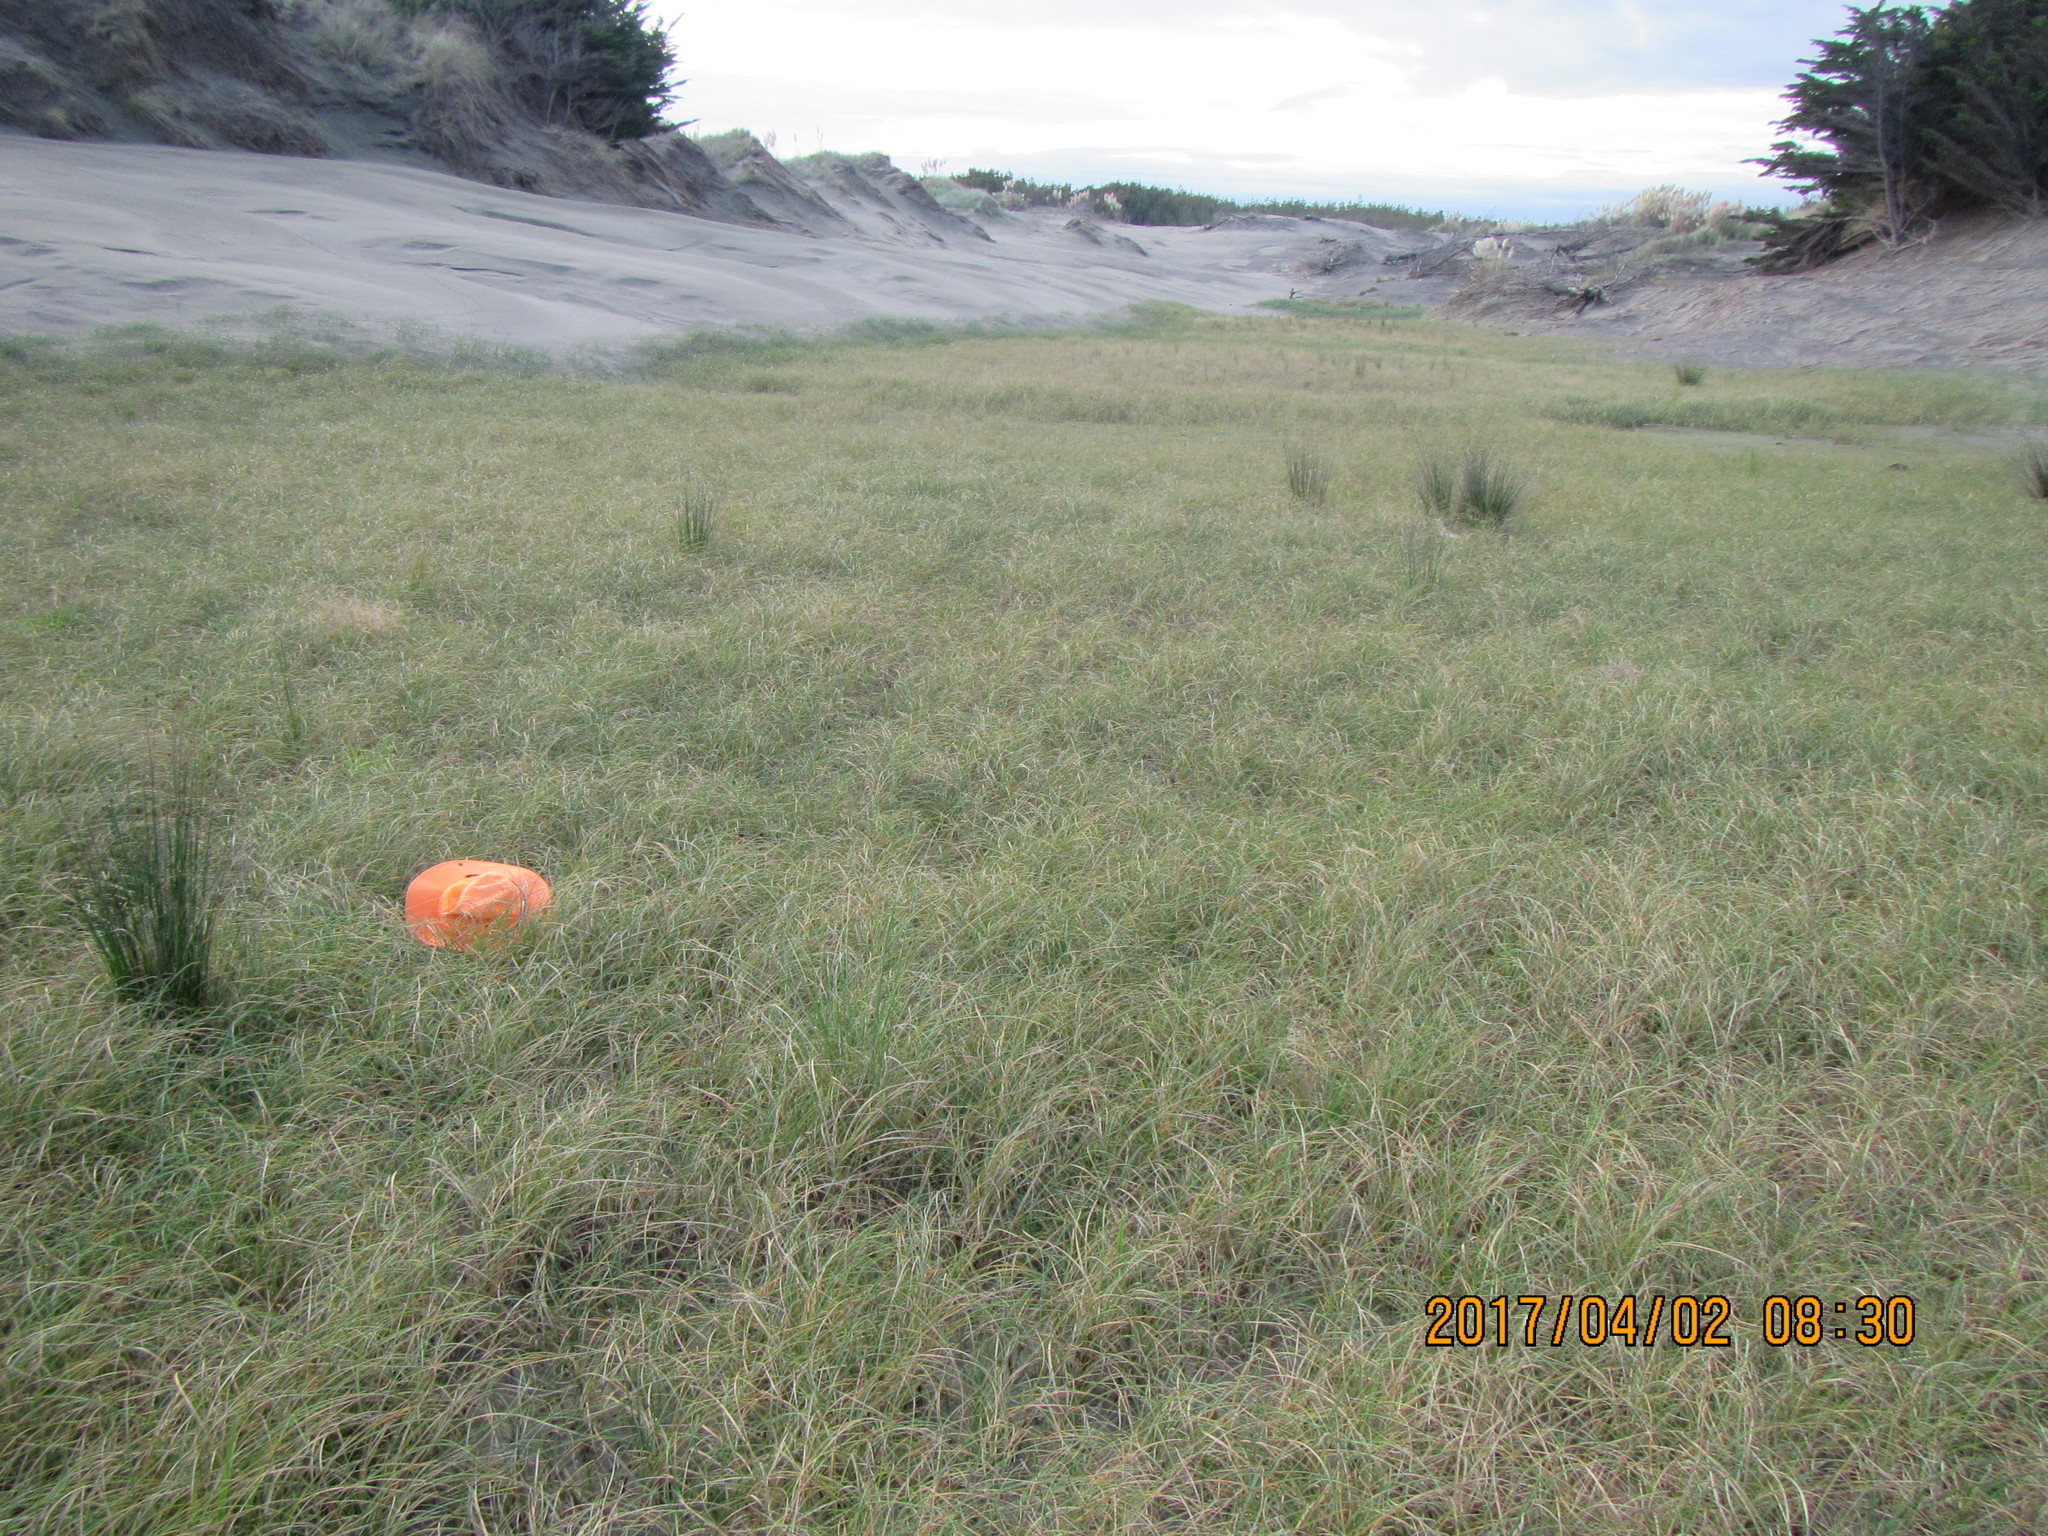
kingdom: Plantae
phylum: Tracheophyta
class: Magnoliopsida
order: Asterales
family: Goodeniaceae
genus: Goodenia
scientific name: Goodenia heenanii
